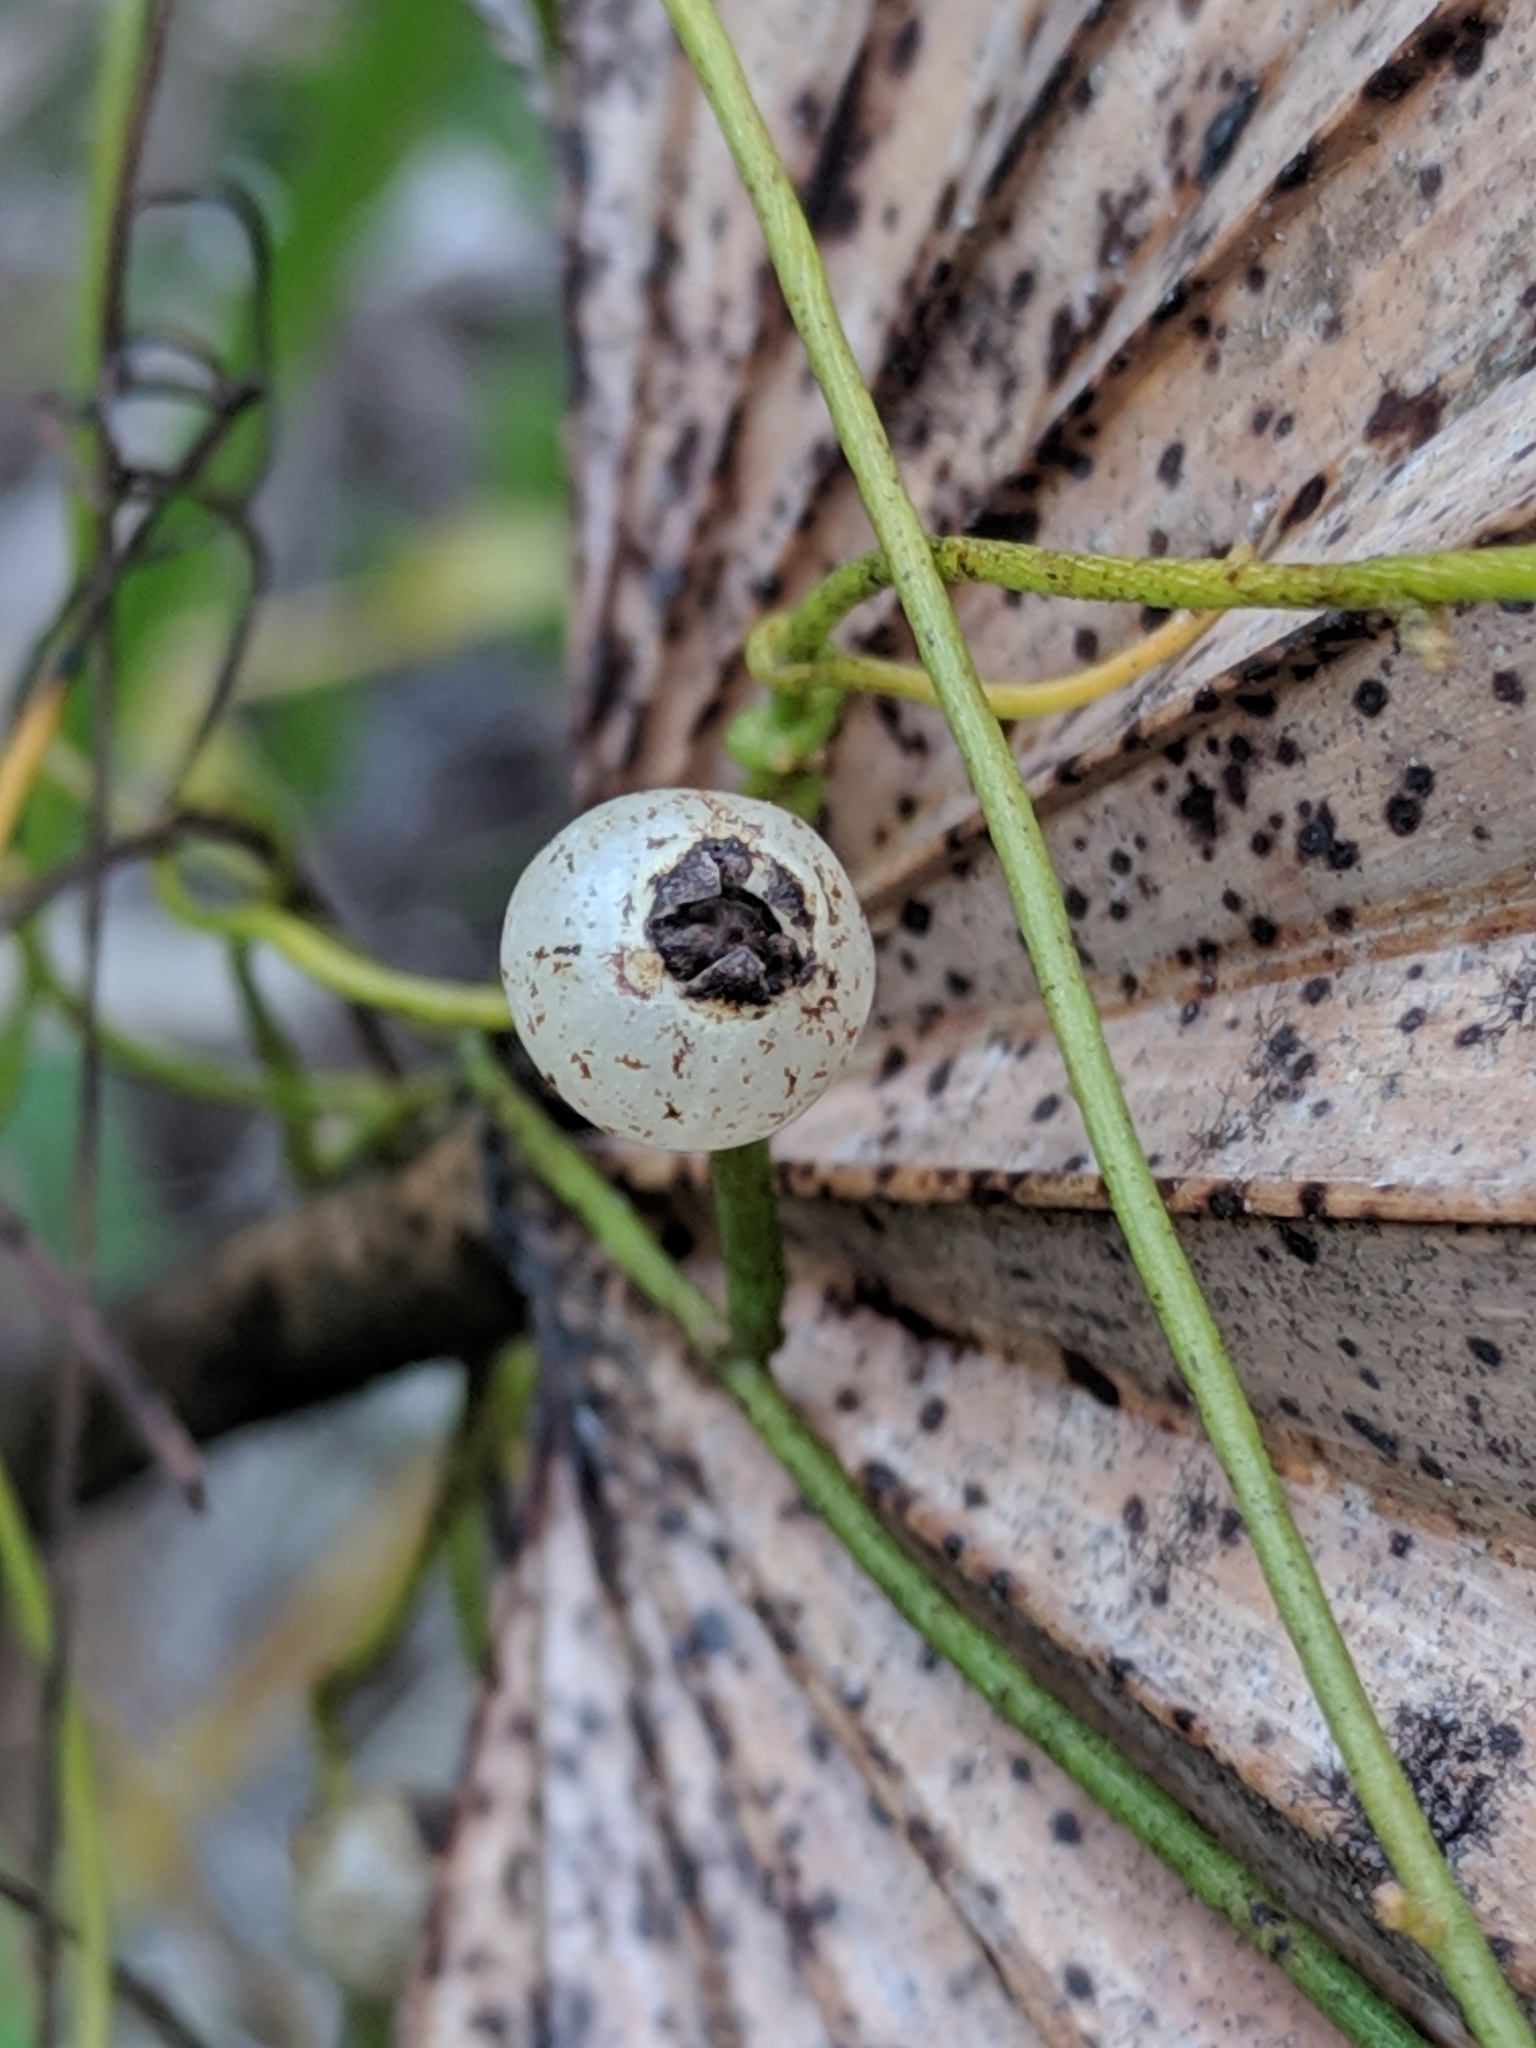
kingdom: Plantae
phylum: Tracheophyta
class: Magnoliopsida
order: Laurales
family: Lauraceae
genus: Cassytha
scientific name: Cassytha filiformis
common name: Dodder-laurel
